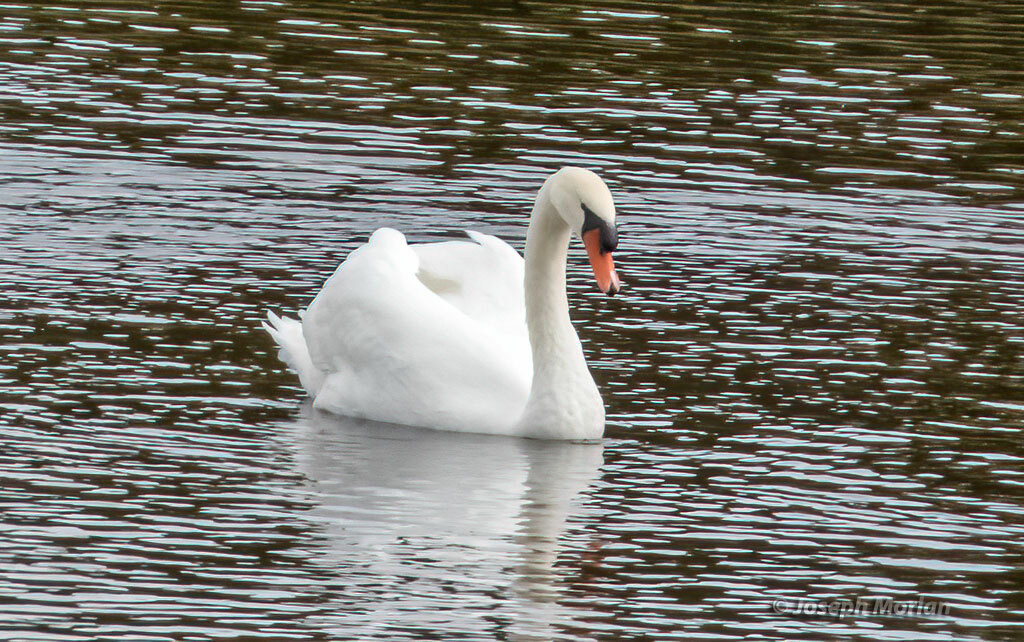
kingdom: Animalia
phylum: Chordata
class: Aves
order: Anseriformes
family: Anatidae
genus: Cygnus
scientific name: Cygnus olor
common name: Mute swan
